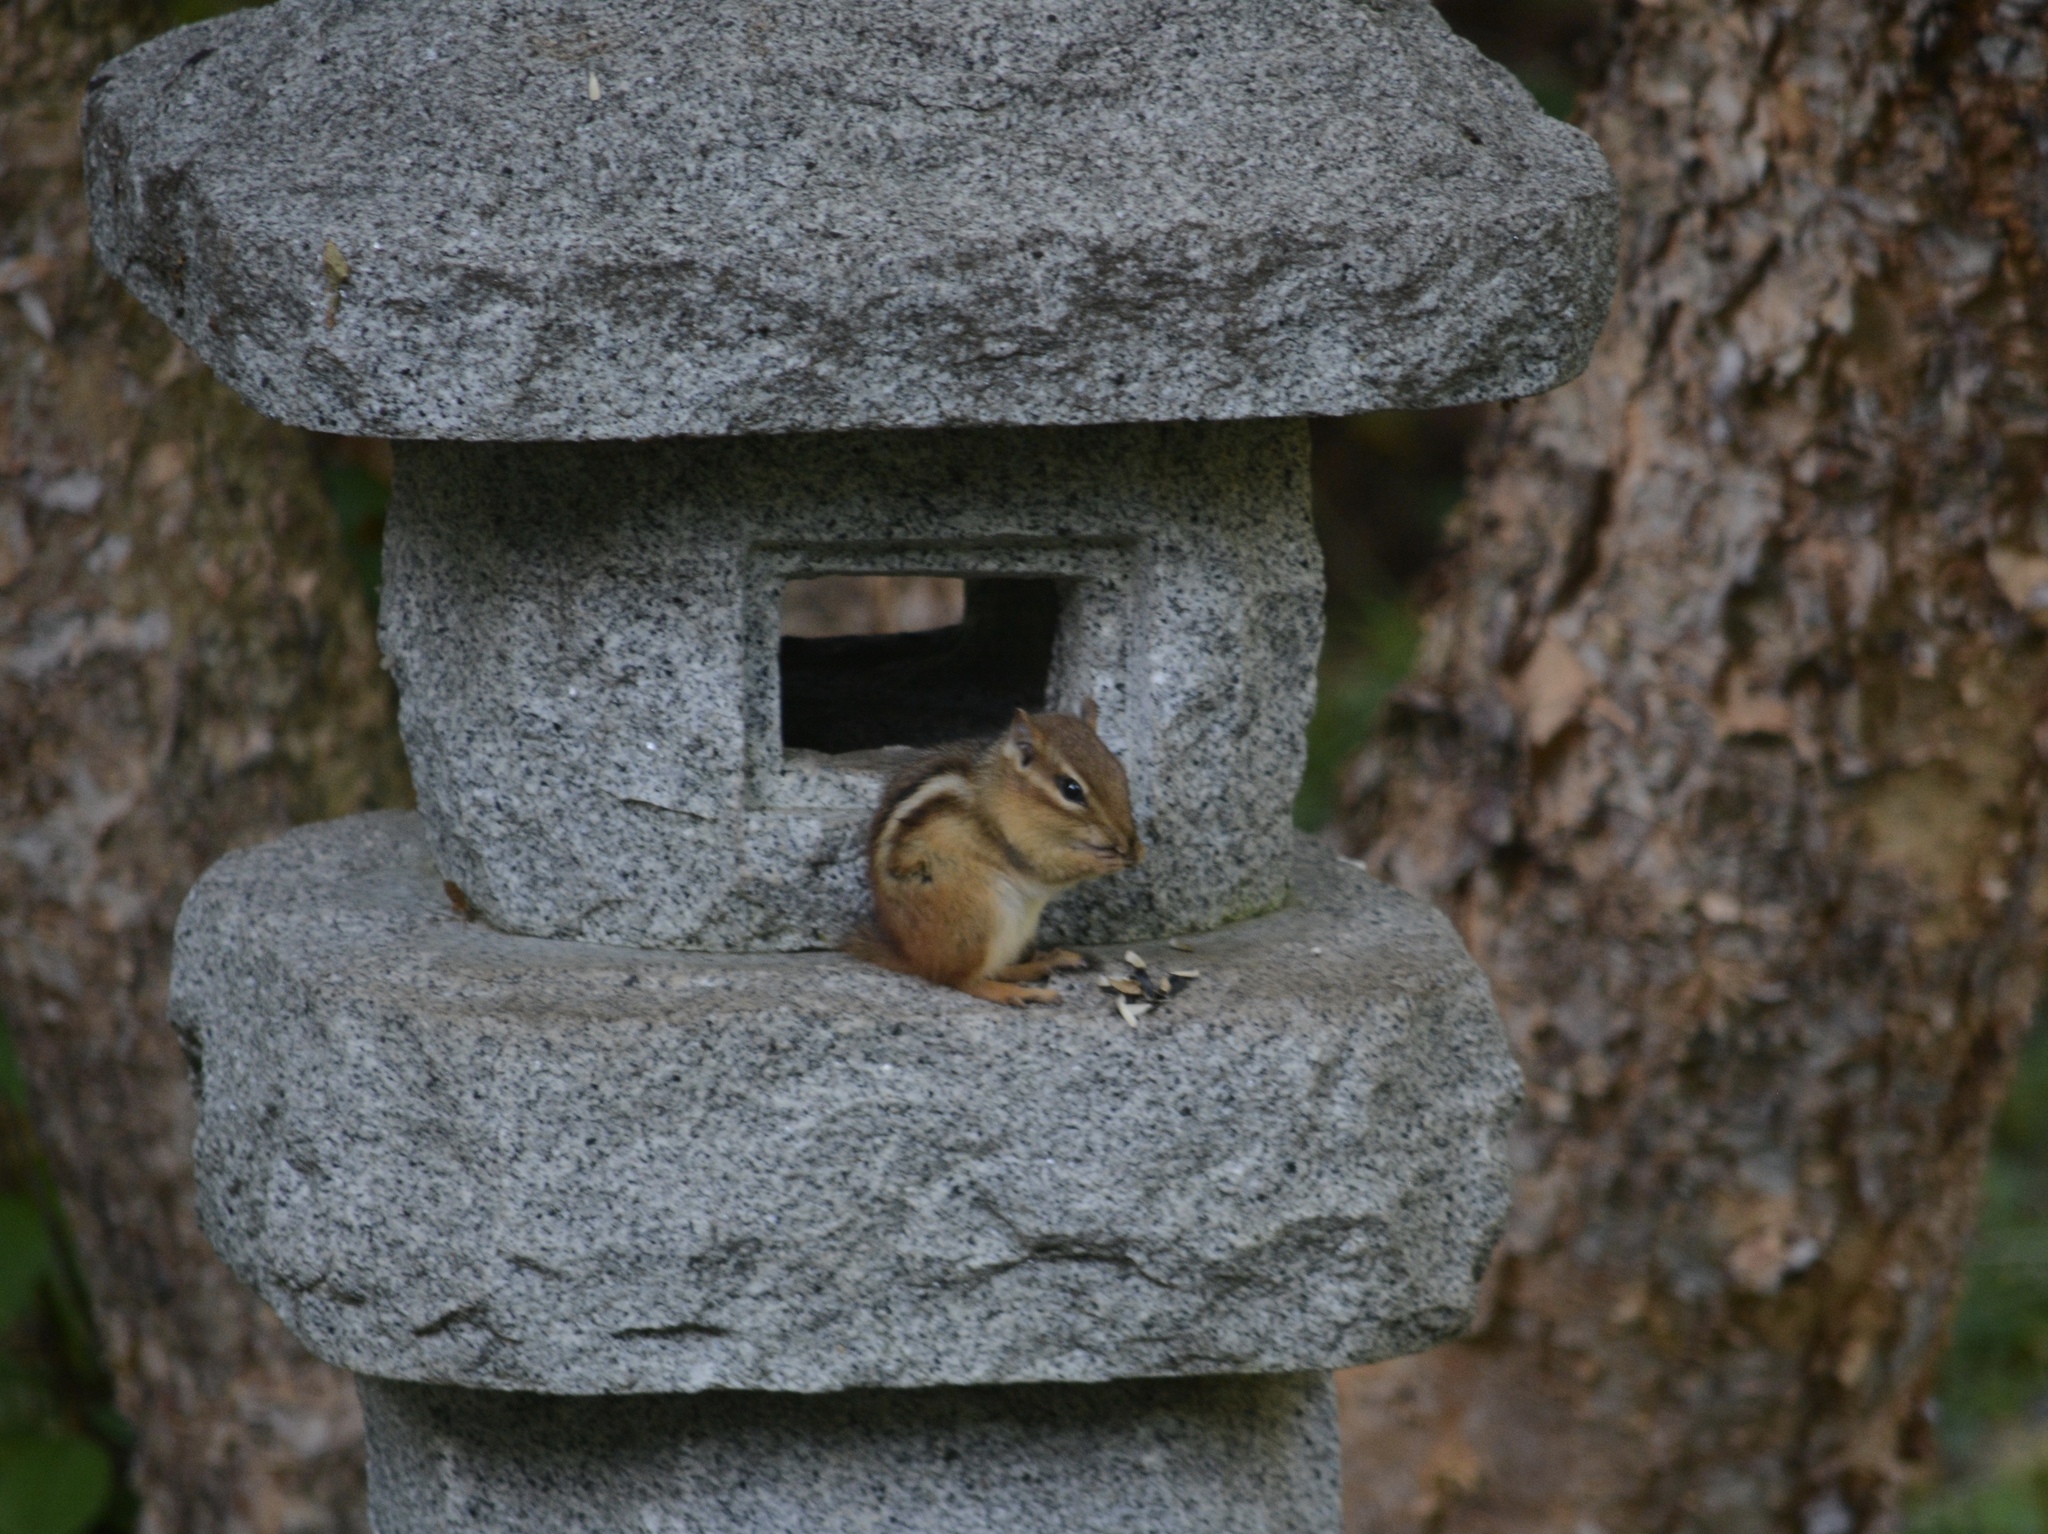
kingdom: Animalia
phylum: Chordata
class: Mammalia
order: Rodentia
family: Sciuridae
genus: Tamias
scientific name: Tamias striatus
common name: Eastern chipmunk
